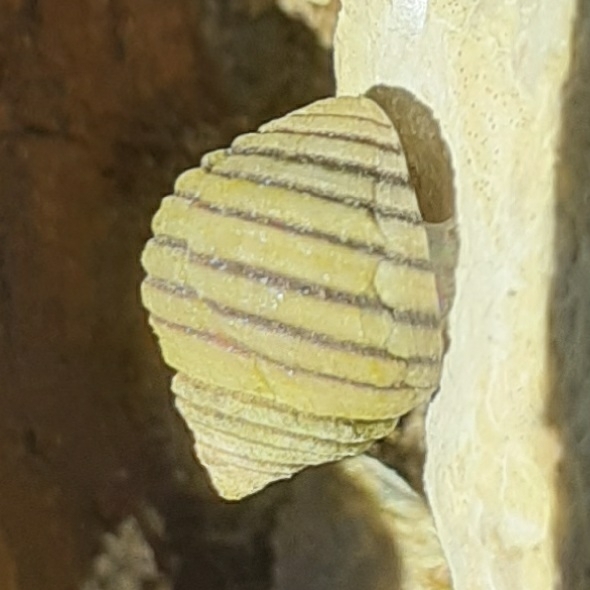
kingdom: Animalia
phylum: Mollusca
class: Gastropoda
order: Littorinimorpha
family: Littorinidae
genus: Littorina
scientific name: Littorina saxatilis
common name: Black-lined periwinkle
